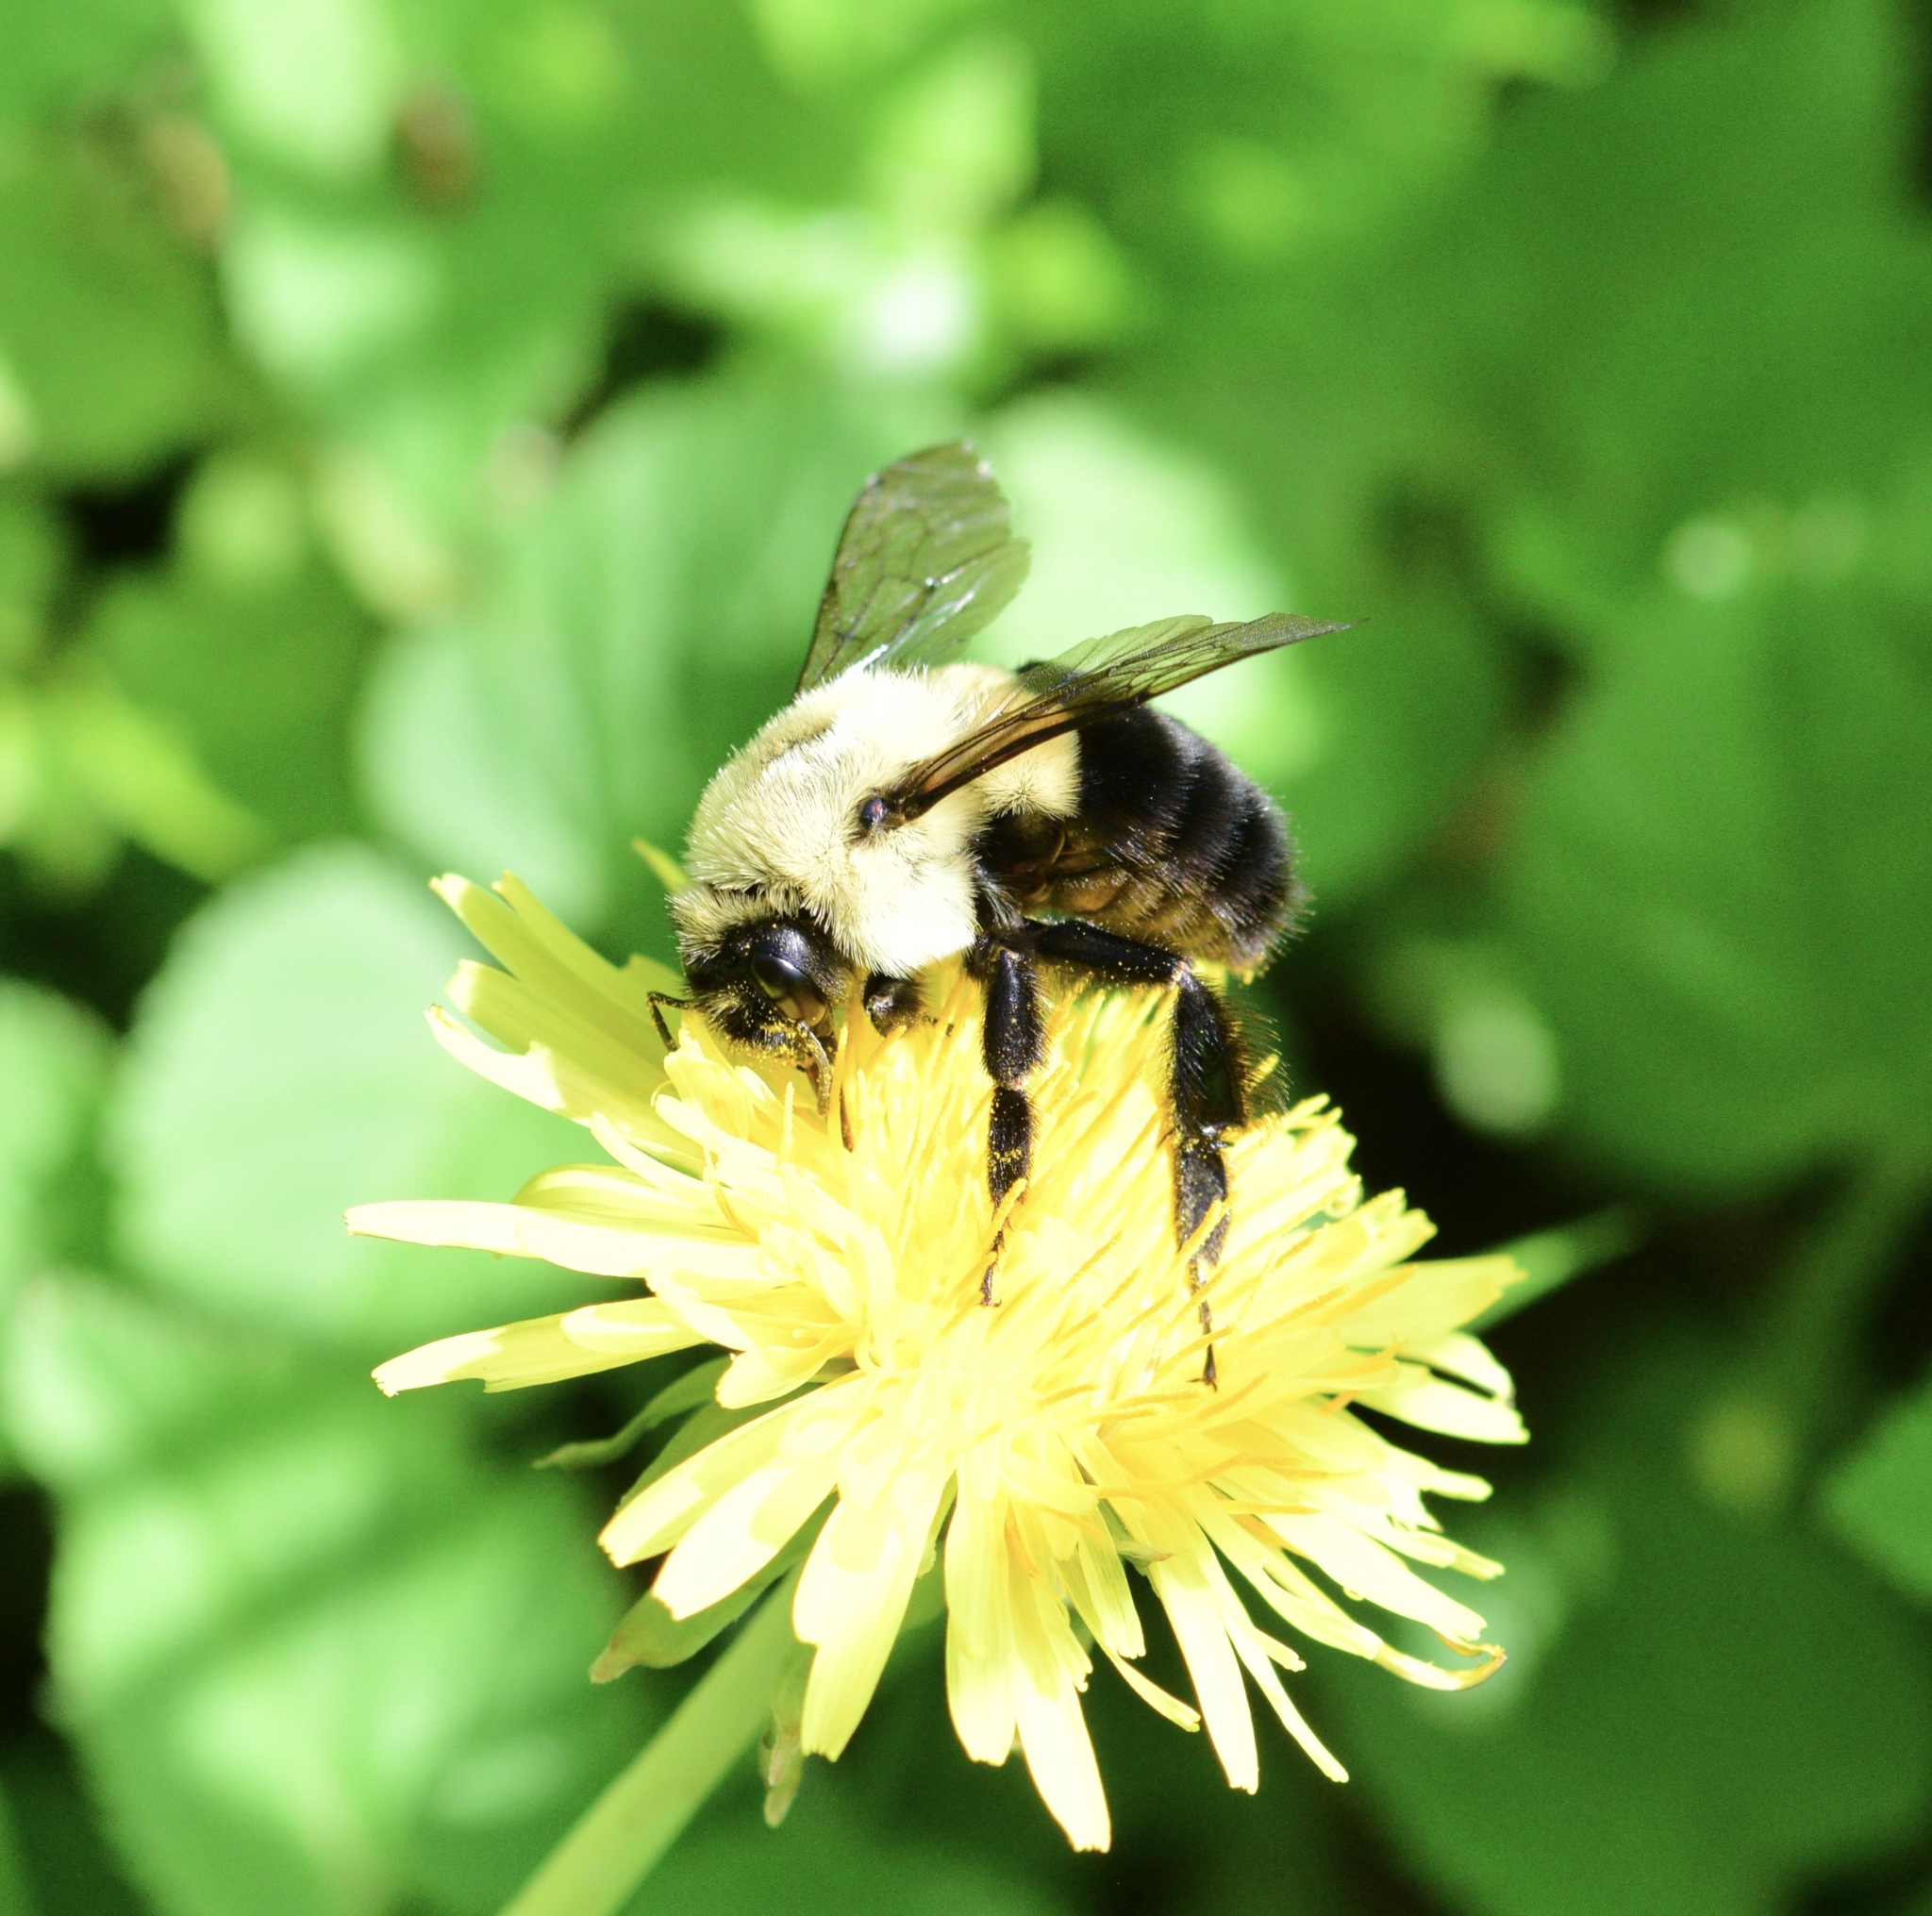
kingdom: Animalia
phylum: Arthropoda
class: Insecta
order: Hymenoptera
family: Apidae
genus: Bombus
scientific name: Bombus impatiens
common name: Common eastern bumble bee
